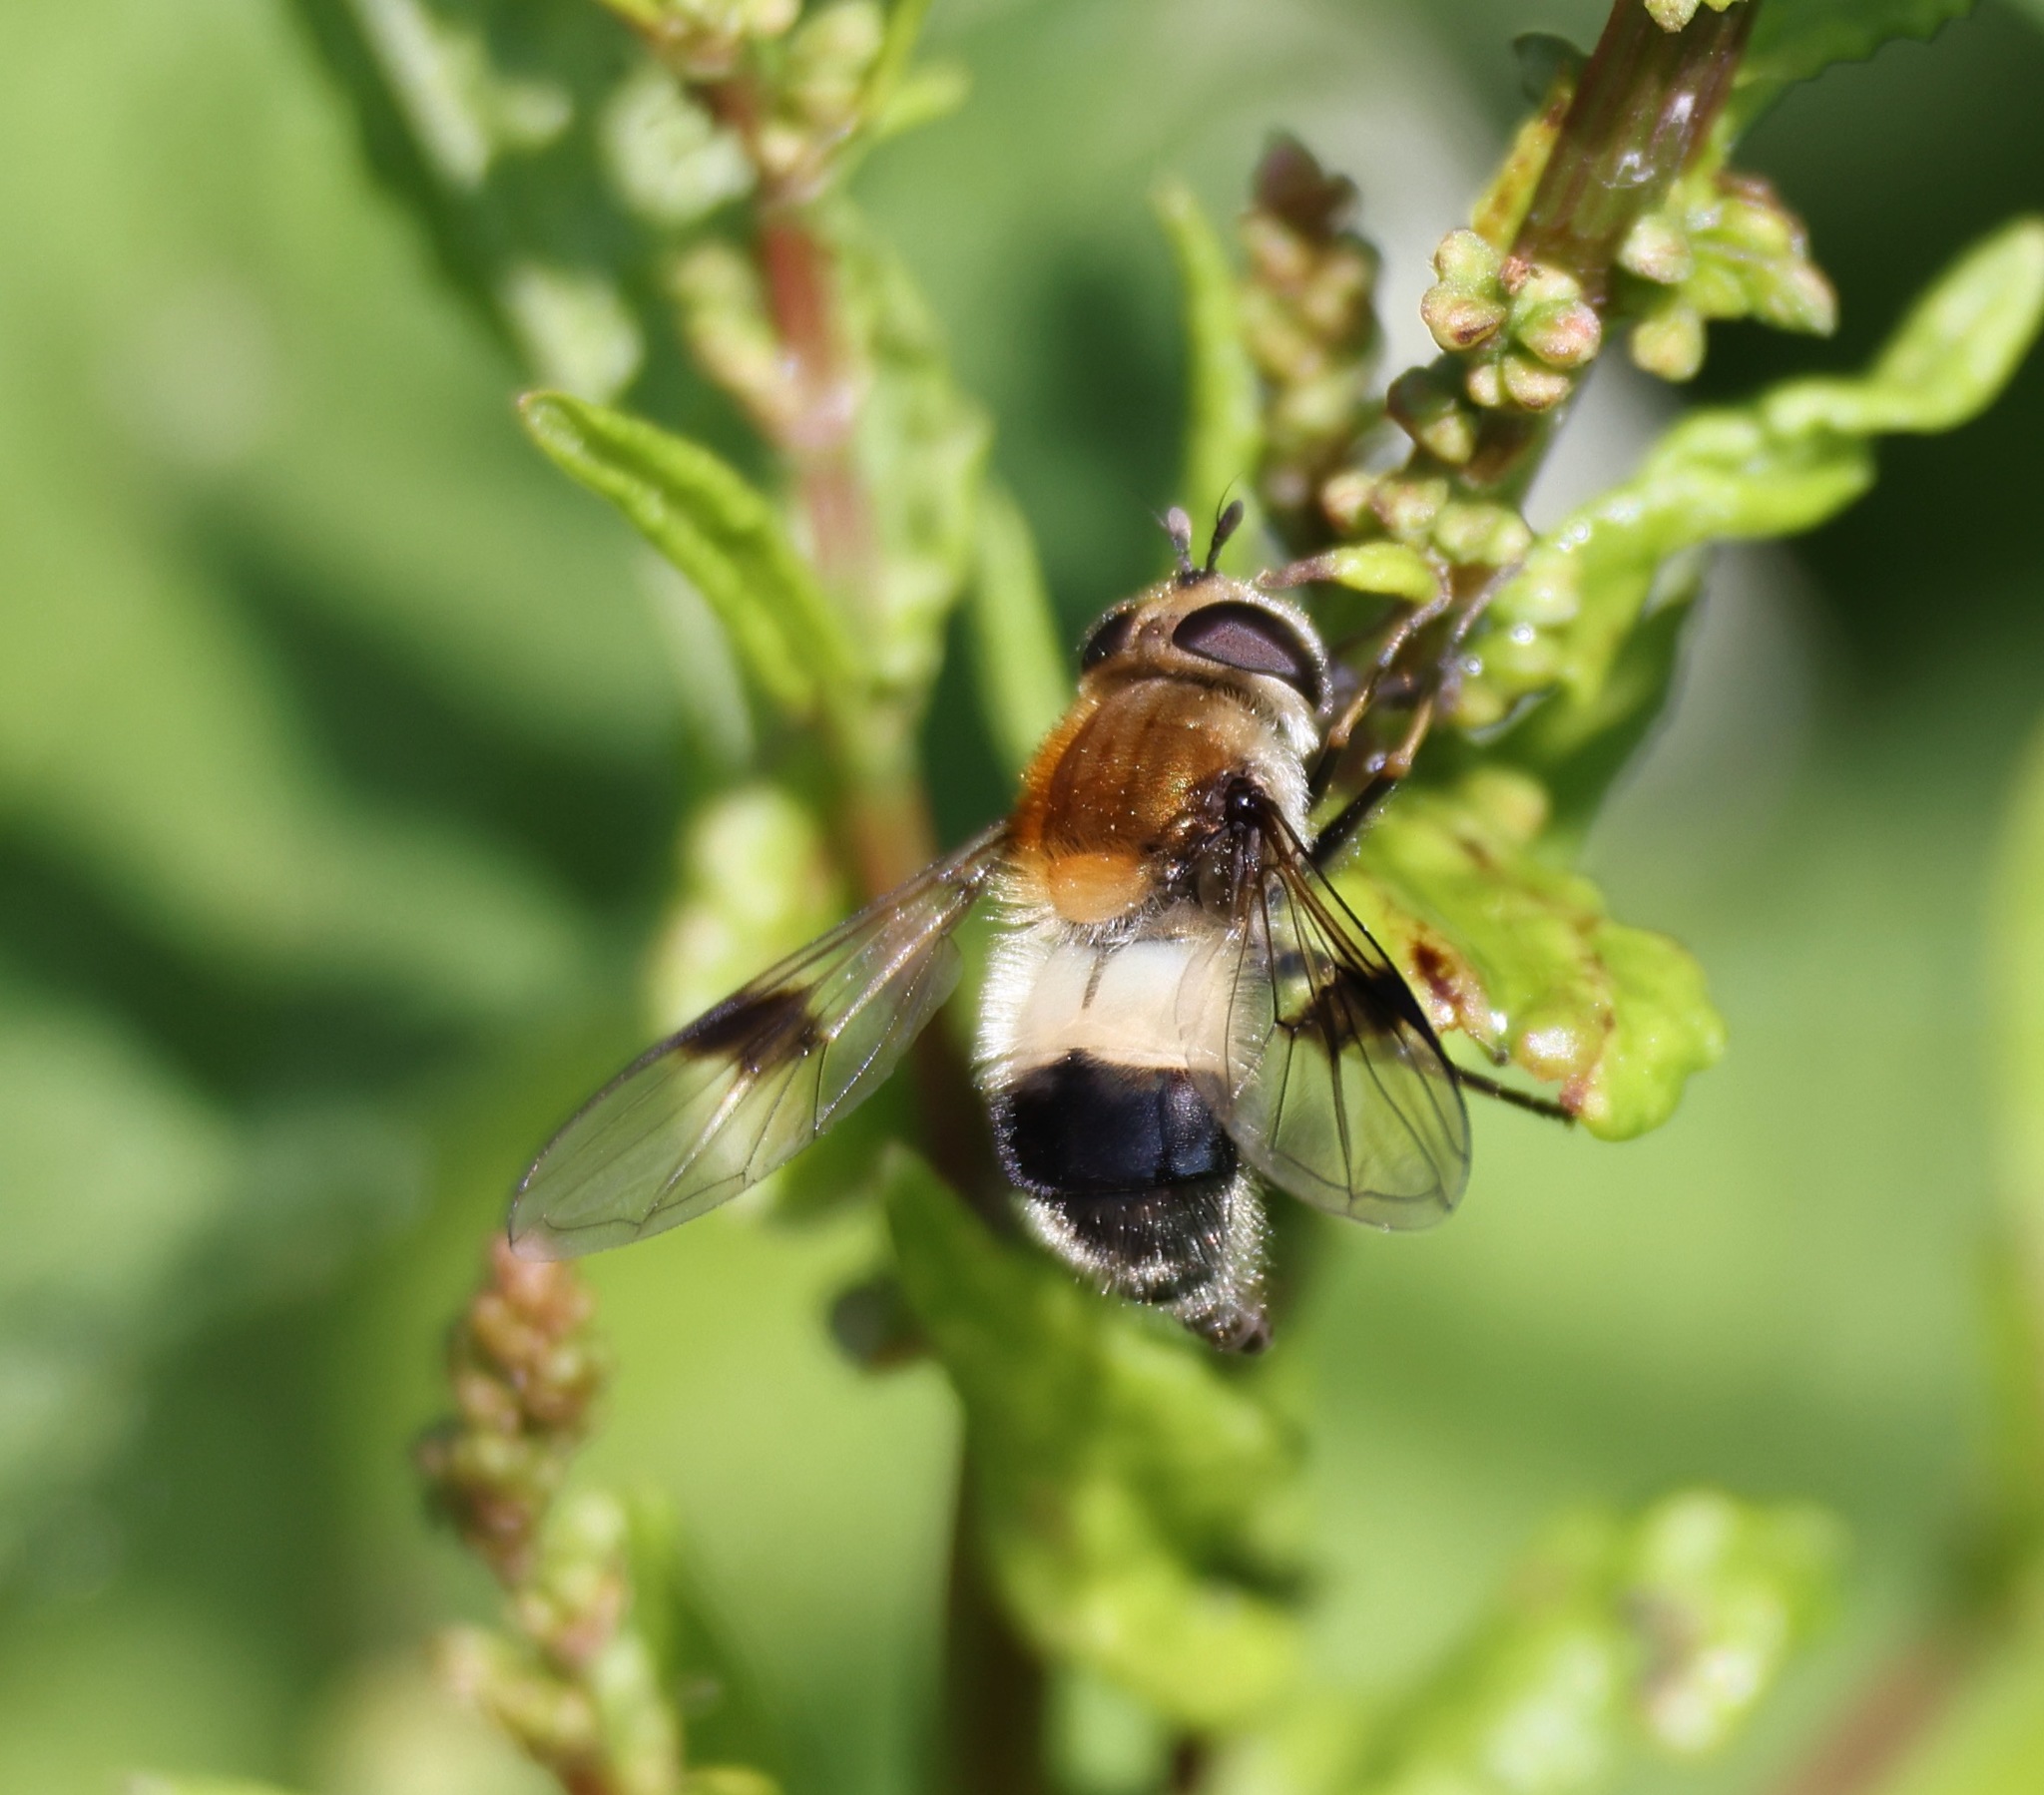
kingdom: Animalia
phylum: Arthropoda
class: Insecta
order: Diptera
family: Syrphidae
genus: Leucozona
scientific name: Leucozona lucorum
